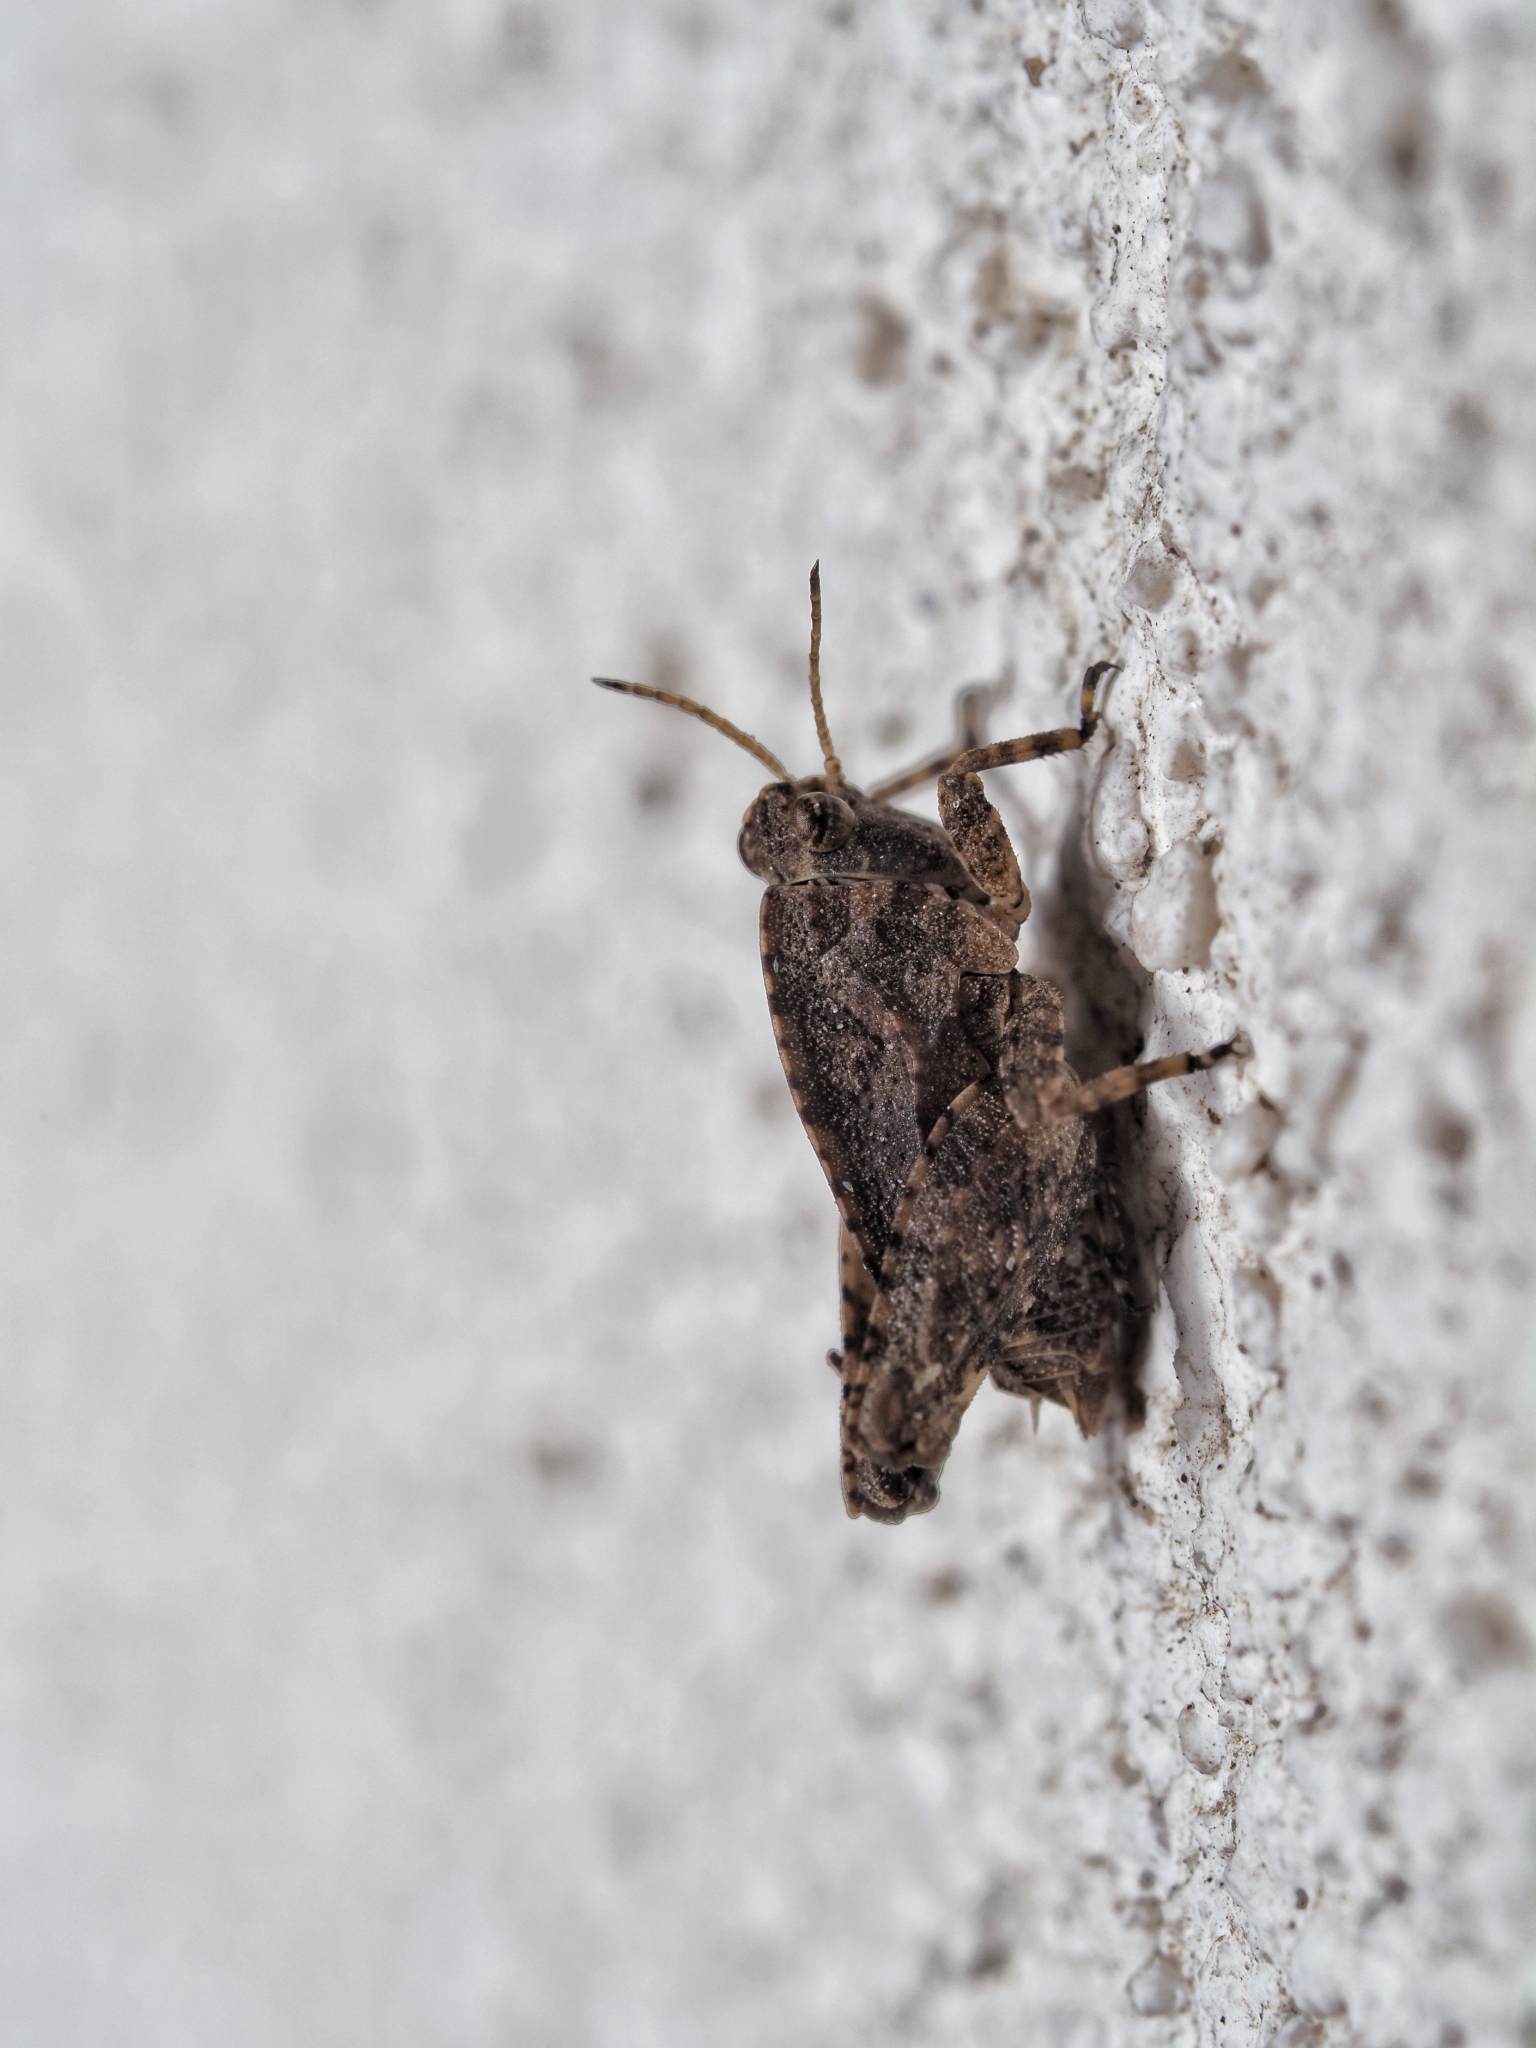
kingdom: Animalia
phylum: Arthropoda
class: Insecta
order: Orthoptera
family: Tetrigidae
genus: Tetrix
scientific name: Tetrix tenuicornis
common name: Long-horned groundhopper
